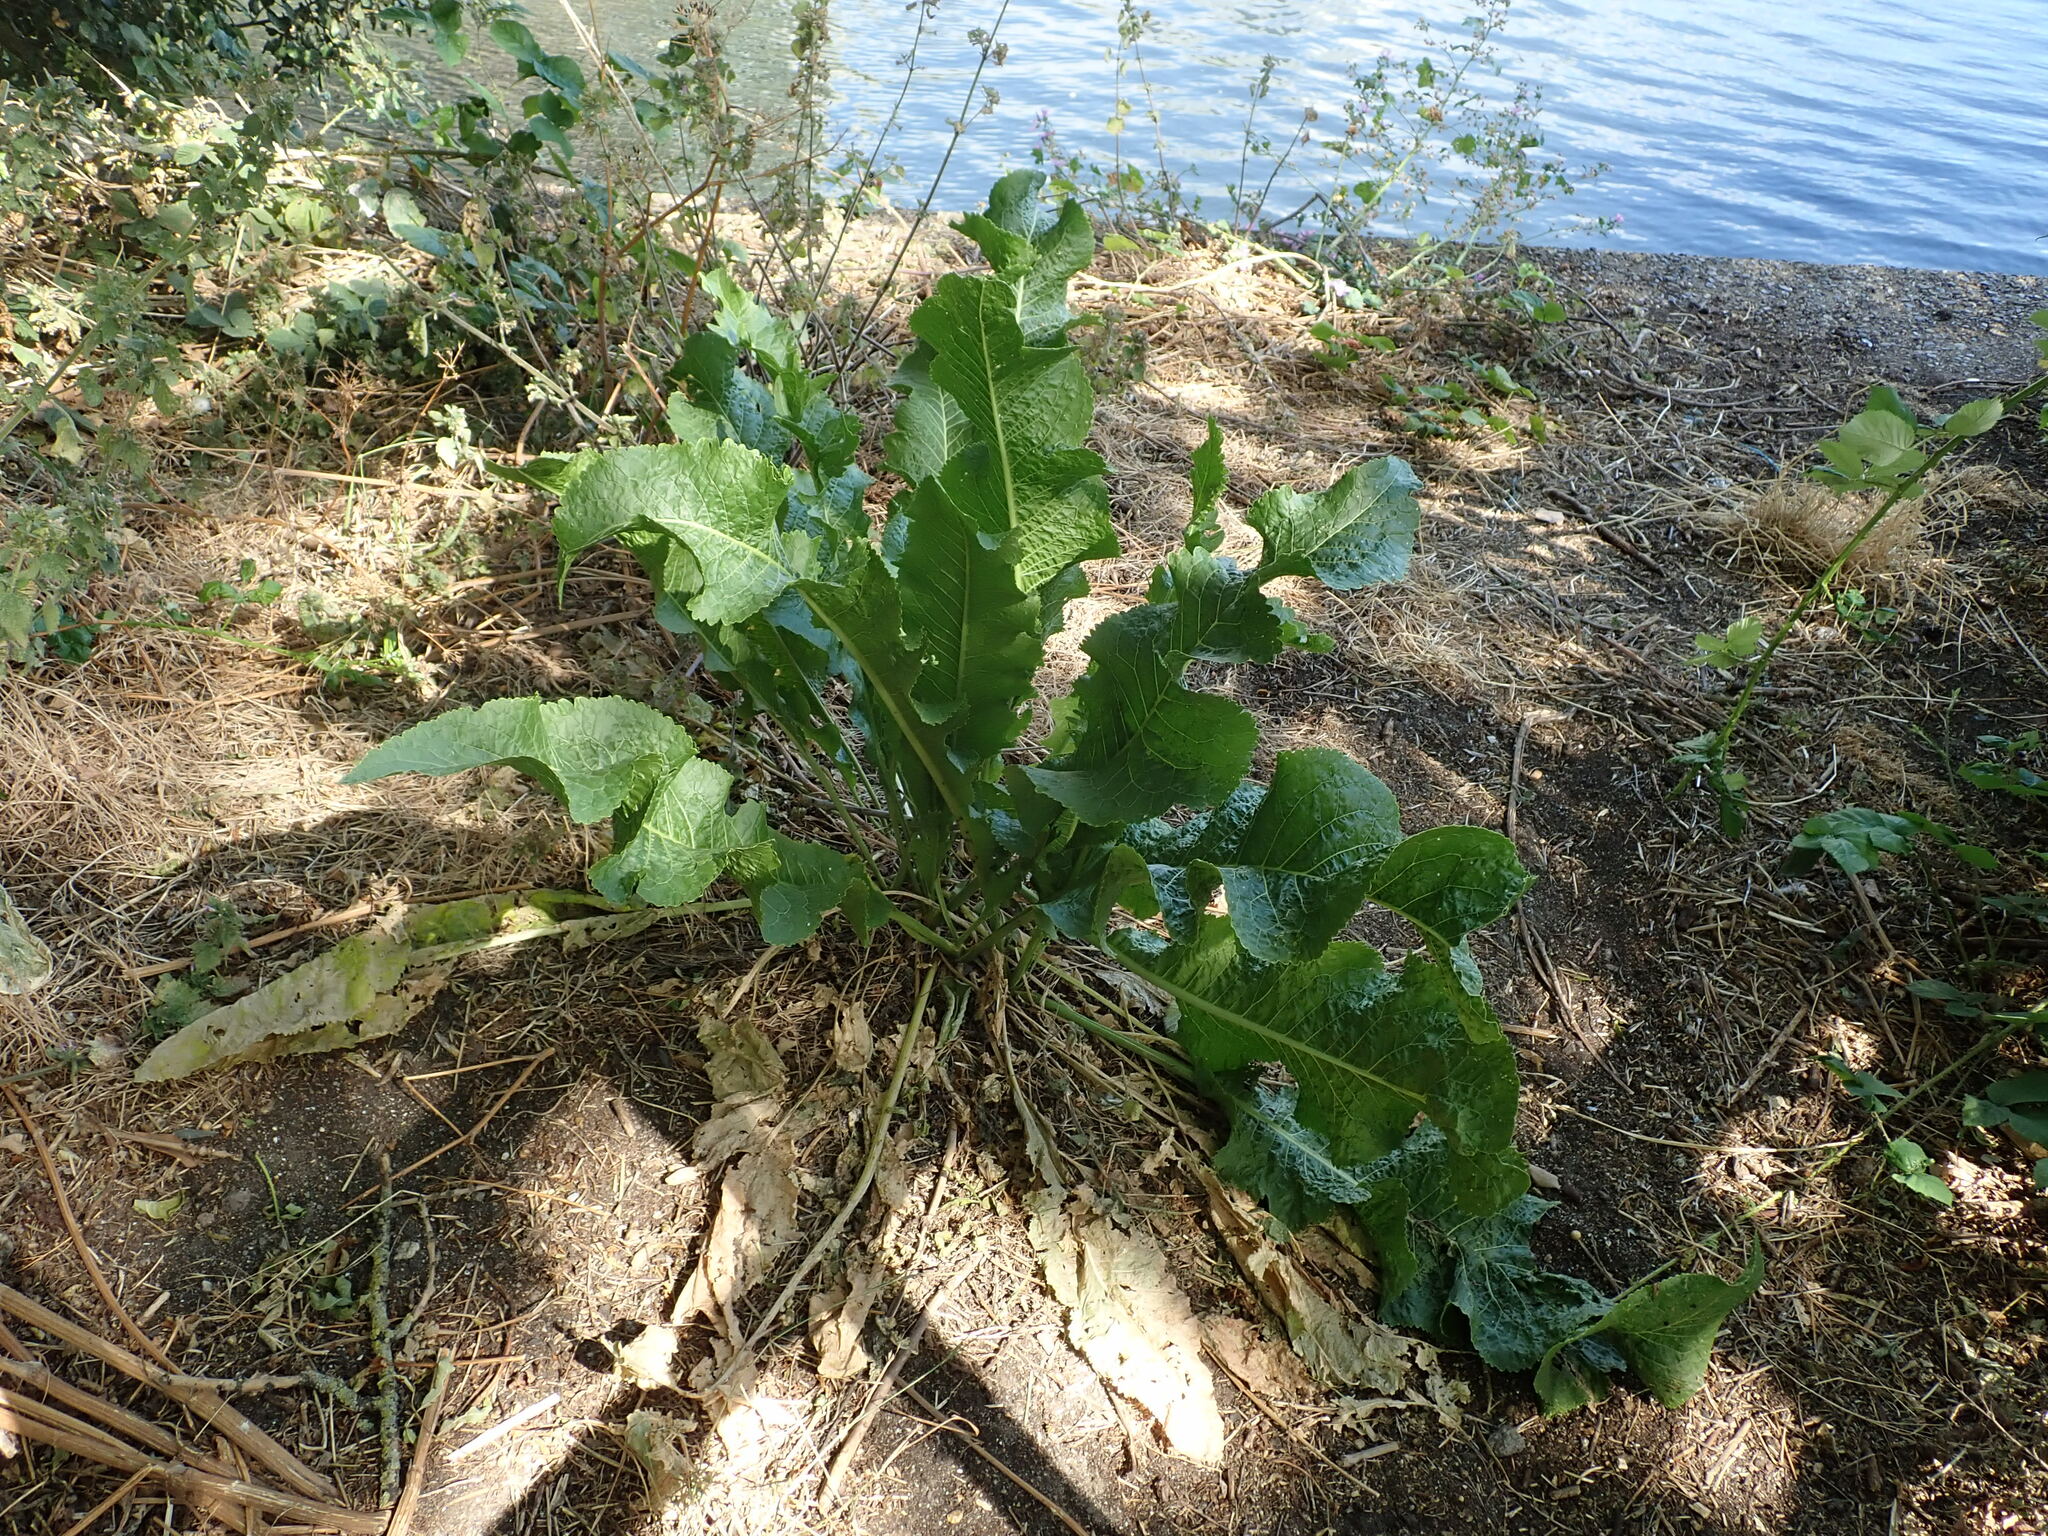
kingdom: Plantae
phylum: Tracheophyta
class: Magnoliopsida
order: Brassicales
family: Brassicaceae
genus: Armoracia
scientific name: Armoracia rusticana
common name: Horseradish
